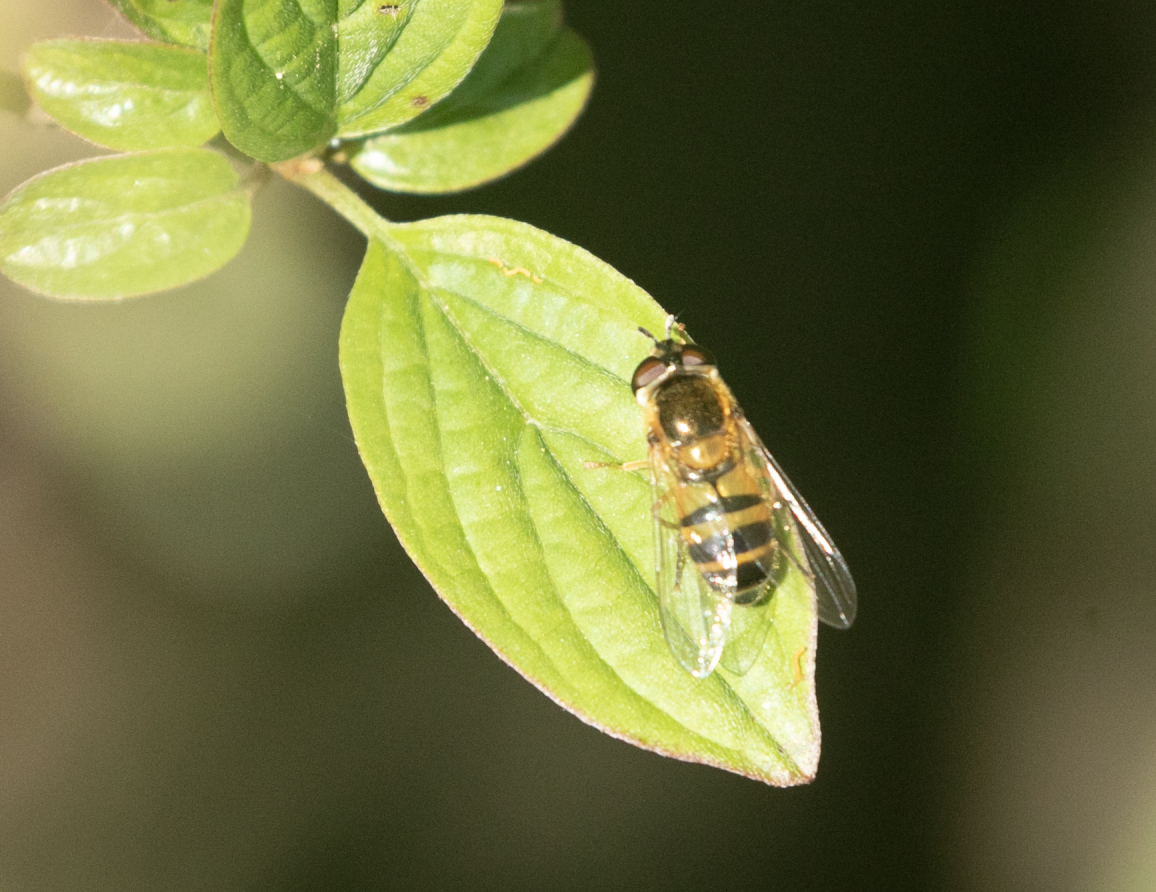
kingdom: Animalia
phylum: Arthropoda
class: Insecta
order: Diptera
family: Syrphidae
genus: Epistrophe
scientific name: Epistrophe eligans
